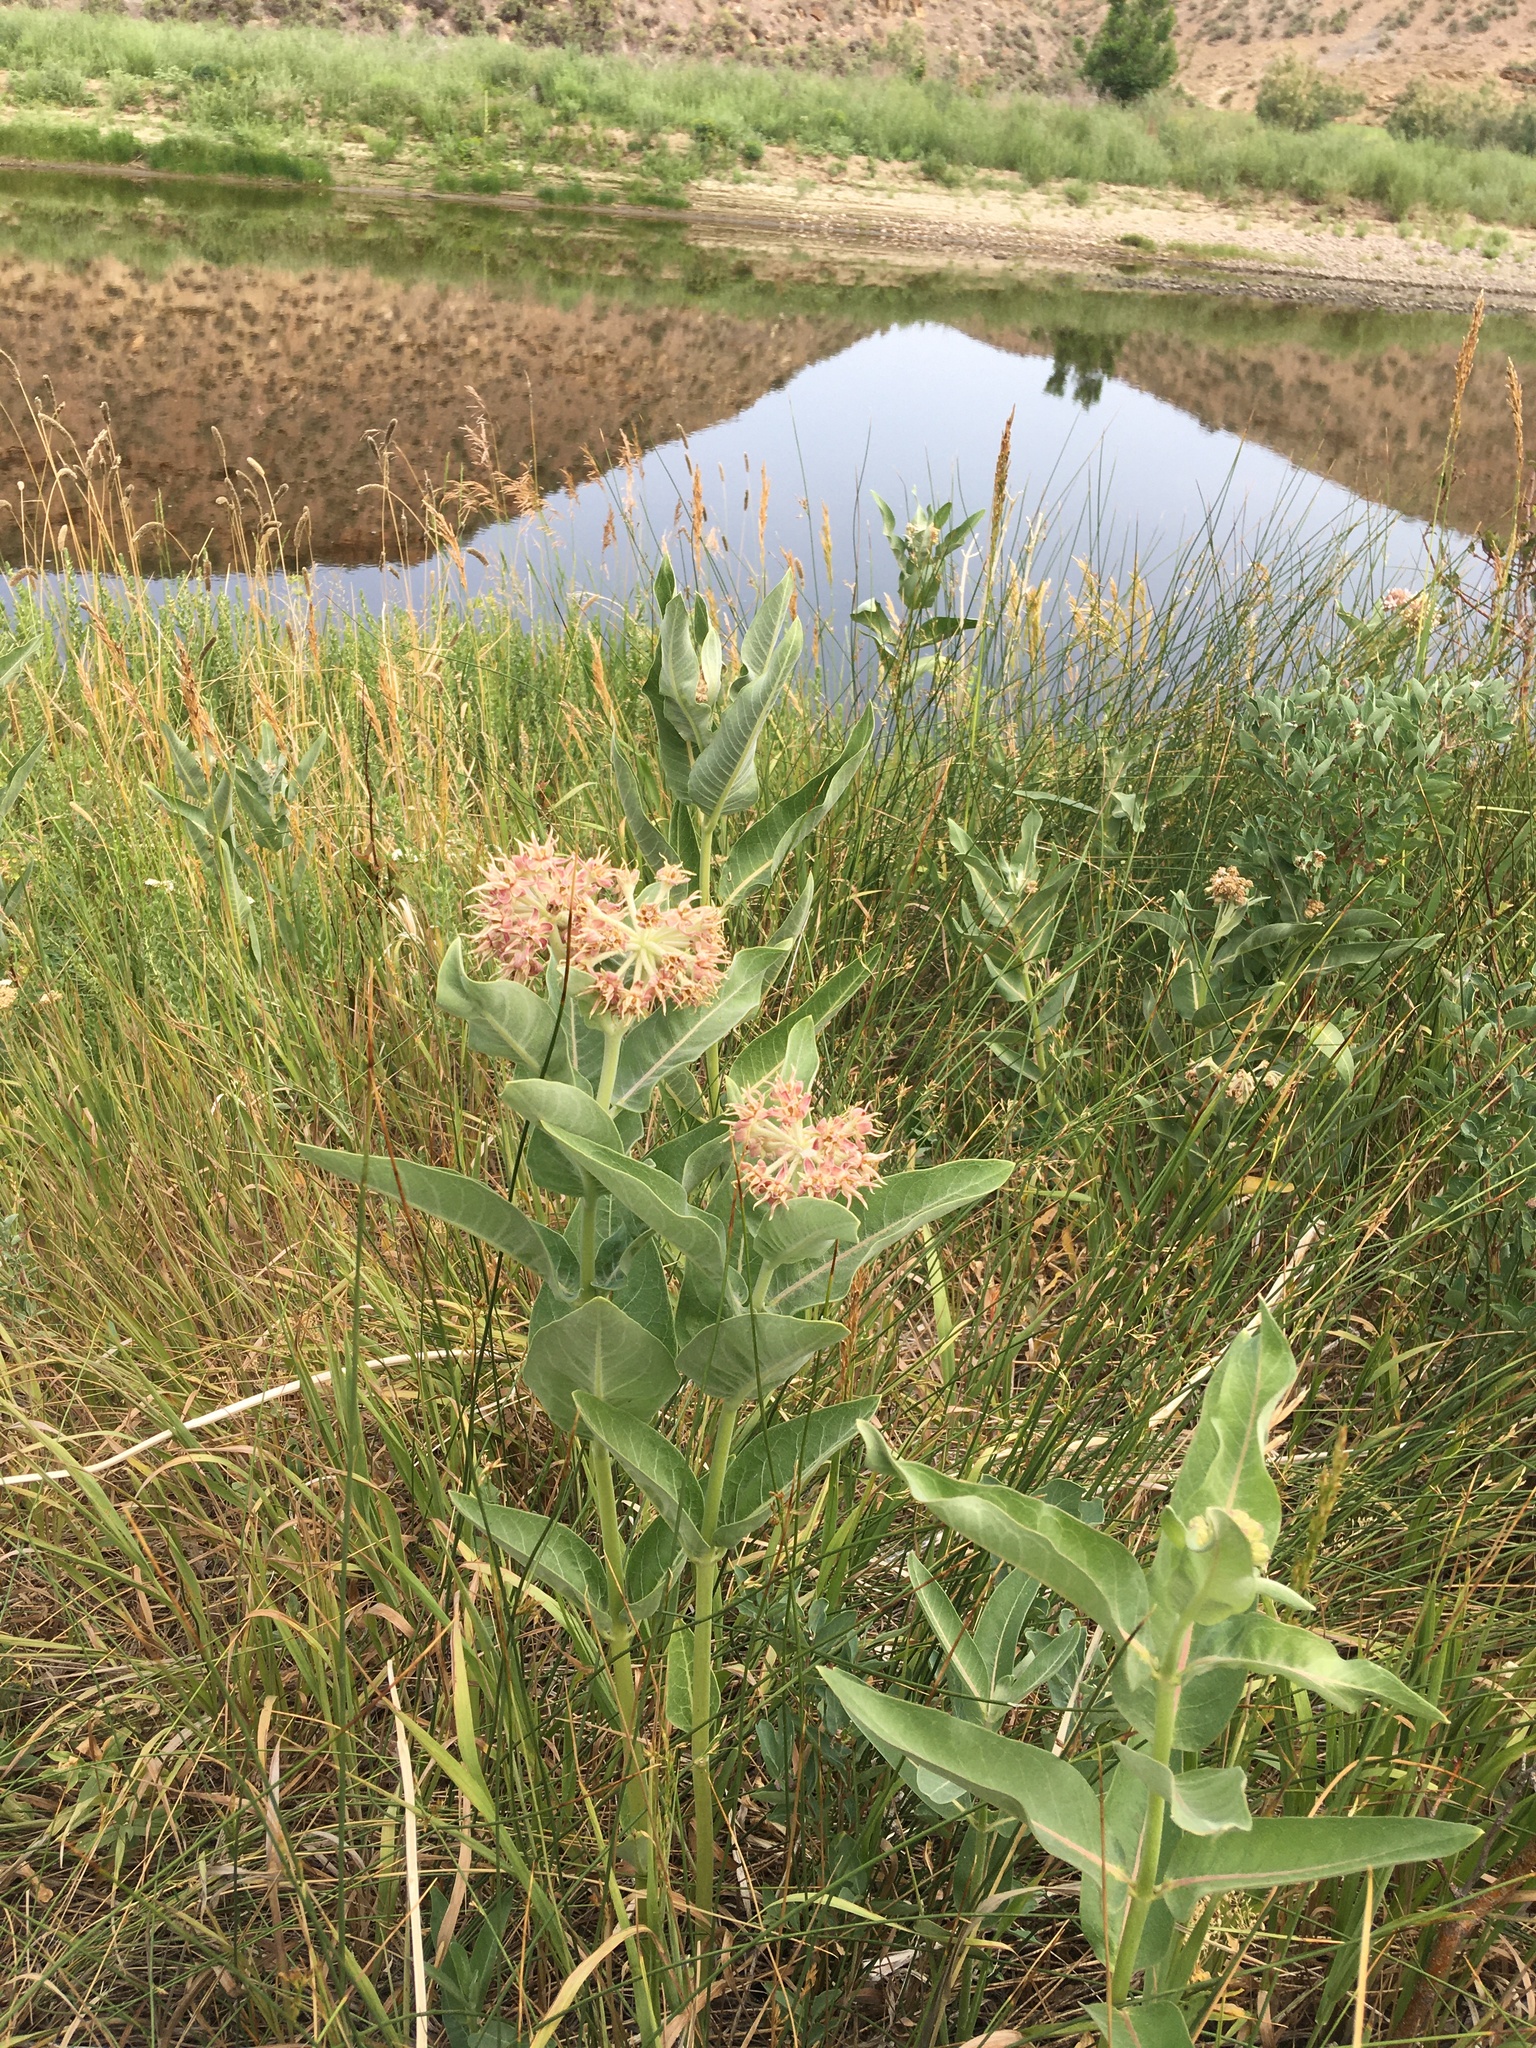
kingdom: Plantae
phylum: Tracheophyta
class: Magnoliopsida
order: Gentianales
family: Apocynaceae
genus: Asclepias
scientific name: Asclepias speciosa
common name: Showy milkweed
